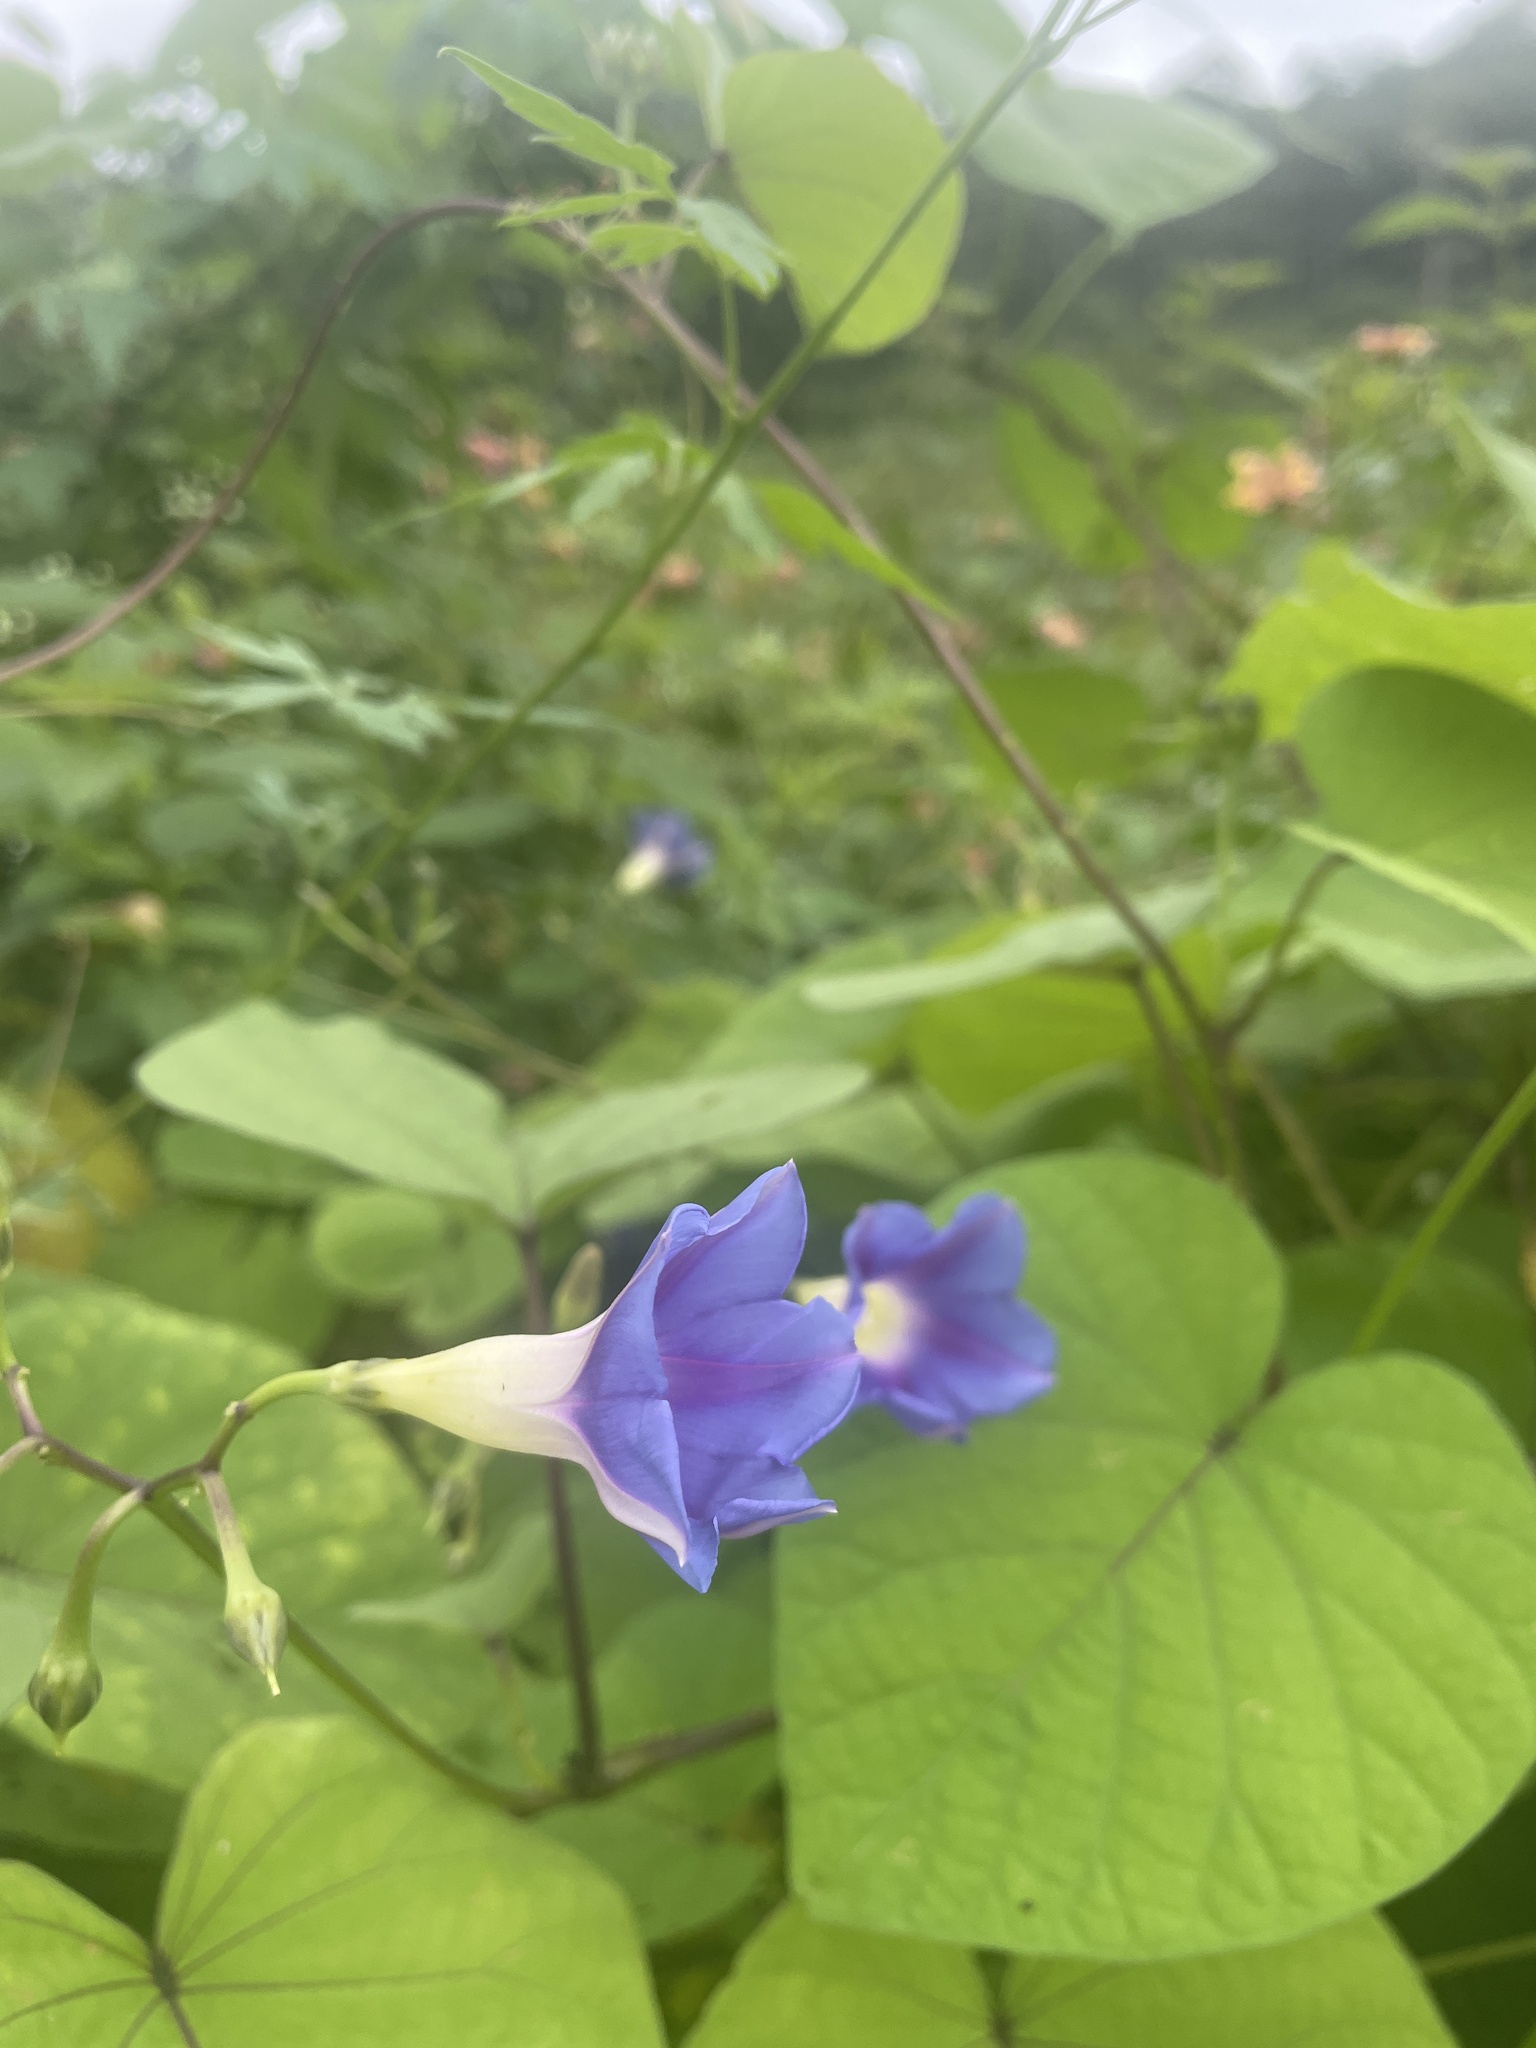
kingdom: Plantae
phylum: Tracheophyta
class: Magnoliopsida
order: Solanales
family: Convolvulaceae
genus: Ipomoea
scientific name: Ipomoea parasitica
